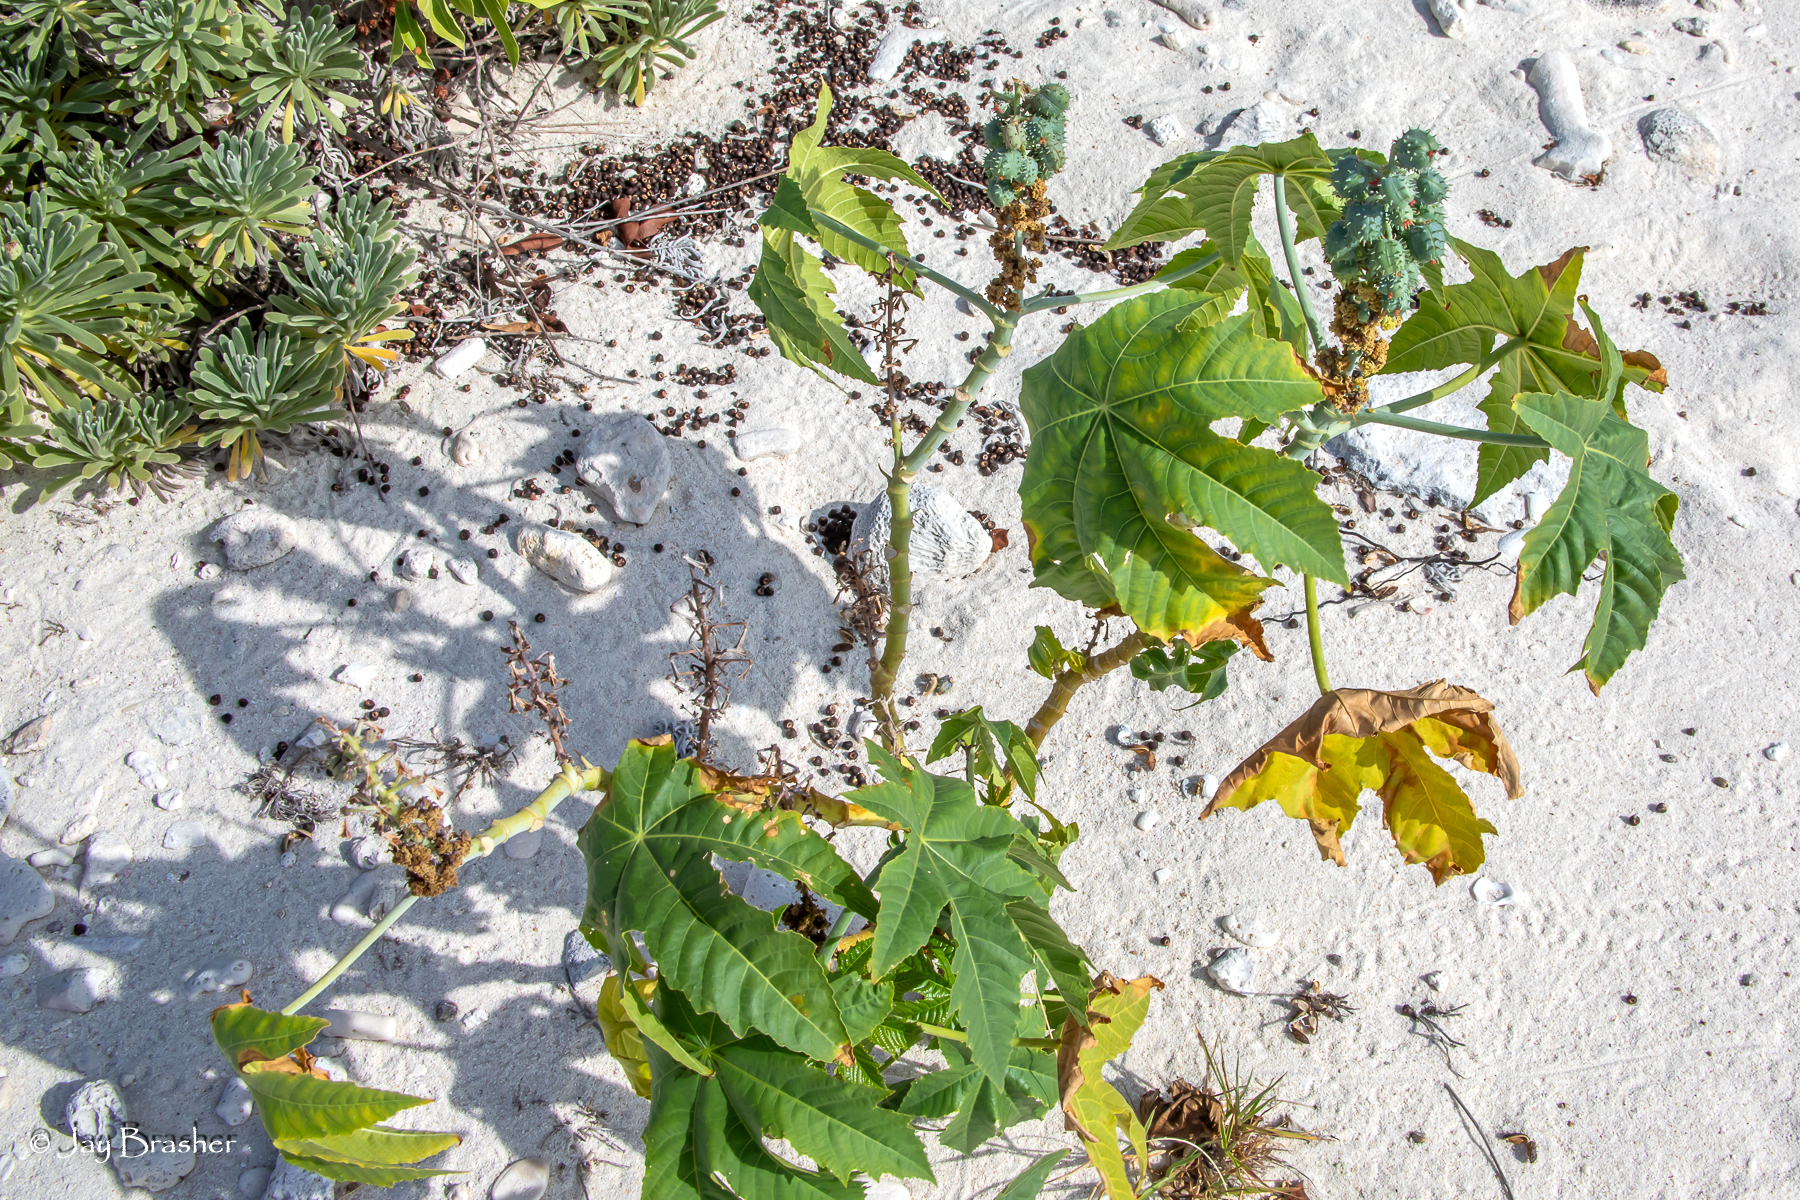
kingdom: Plantae
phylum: Tracheophyta
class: Magnoliopsida
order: Malpighiales
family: Euphorbiaceae
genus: Ricinus
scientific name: Ricinus communis
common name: Castor-oil-plant
